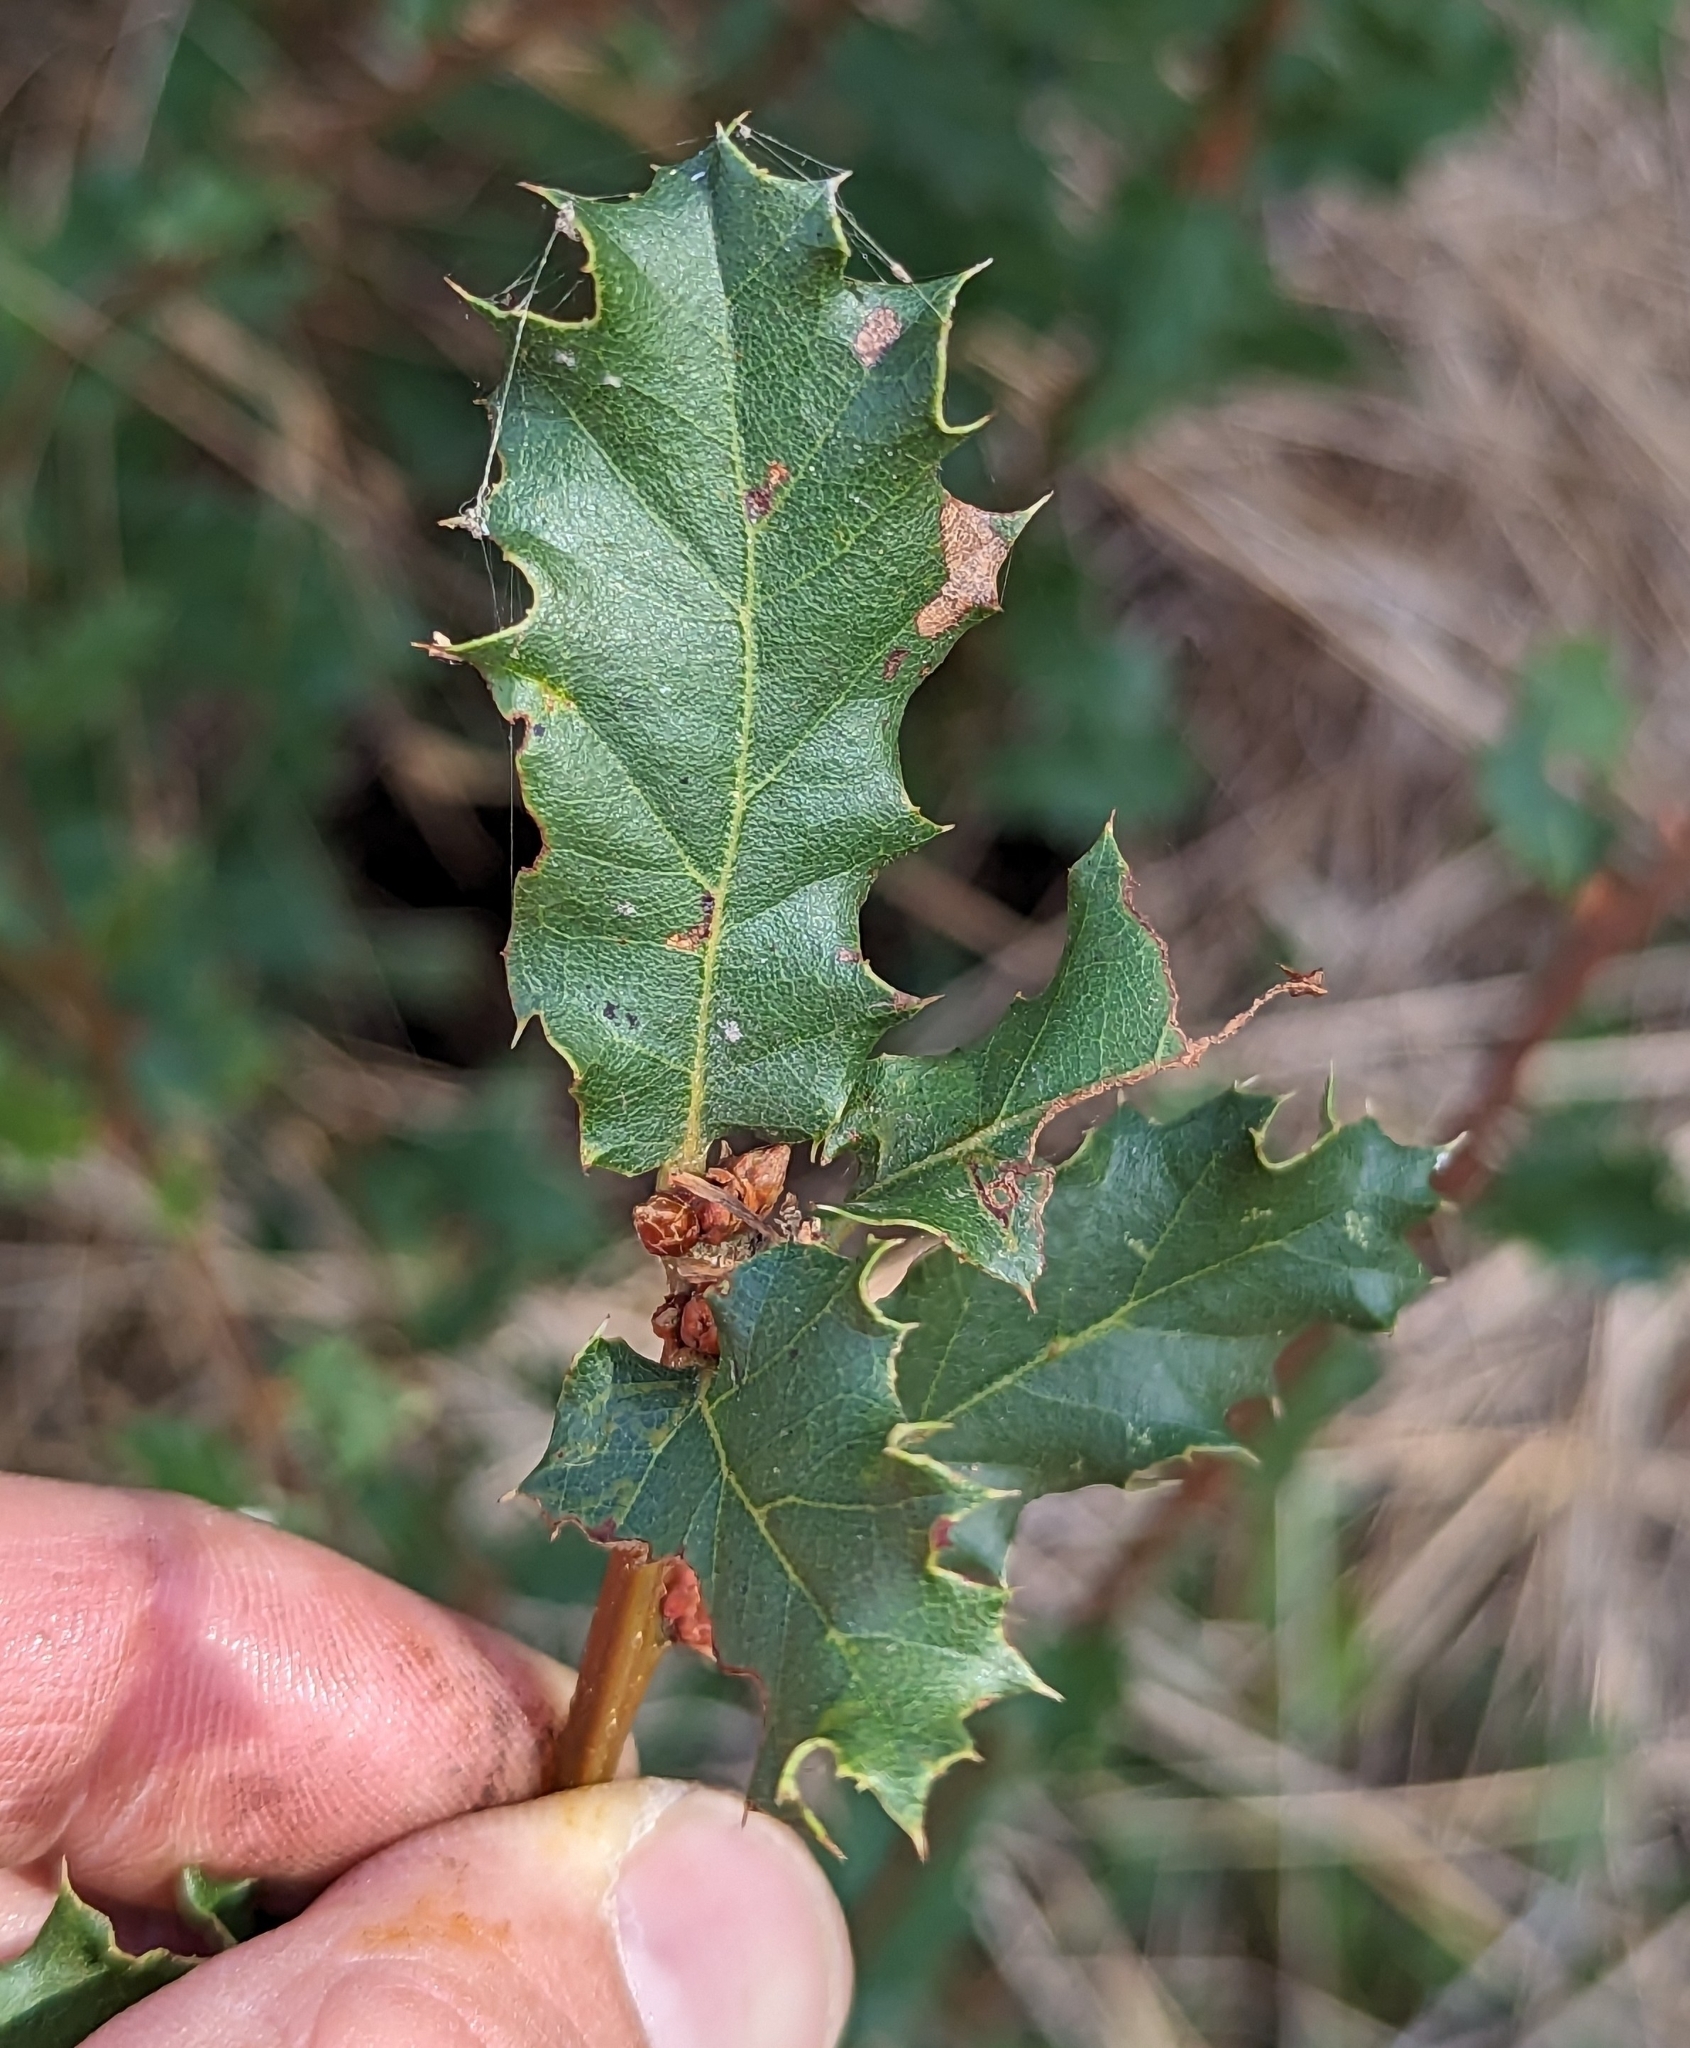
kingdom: Plantae
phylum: Tracheophyta
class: Magnoliopsida
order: Fagales
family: Fagaceae
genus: Quercus
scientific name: Quercus berberidifolia
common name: California scrub oak
